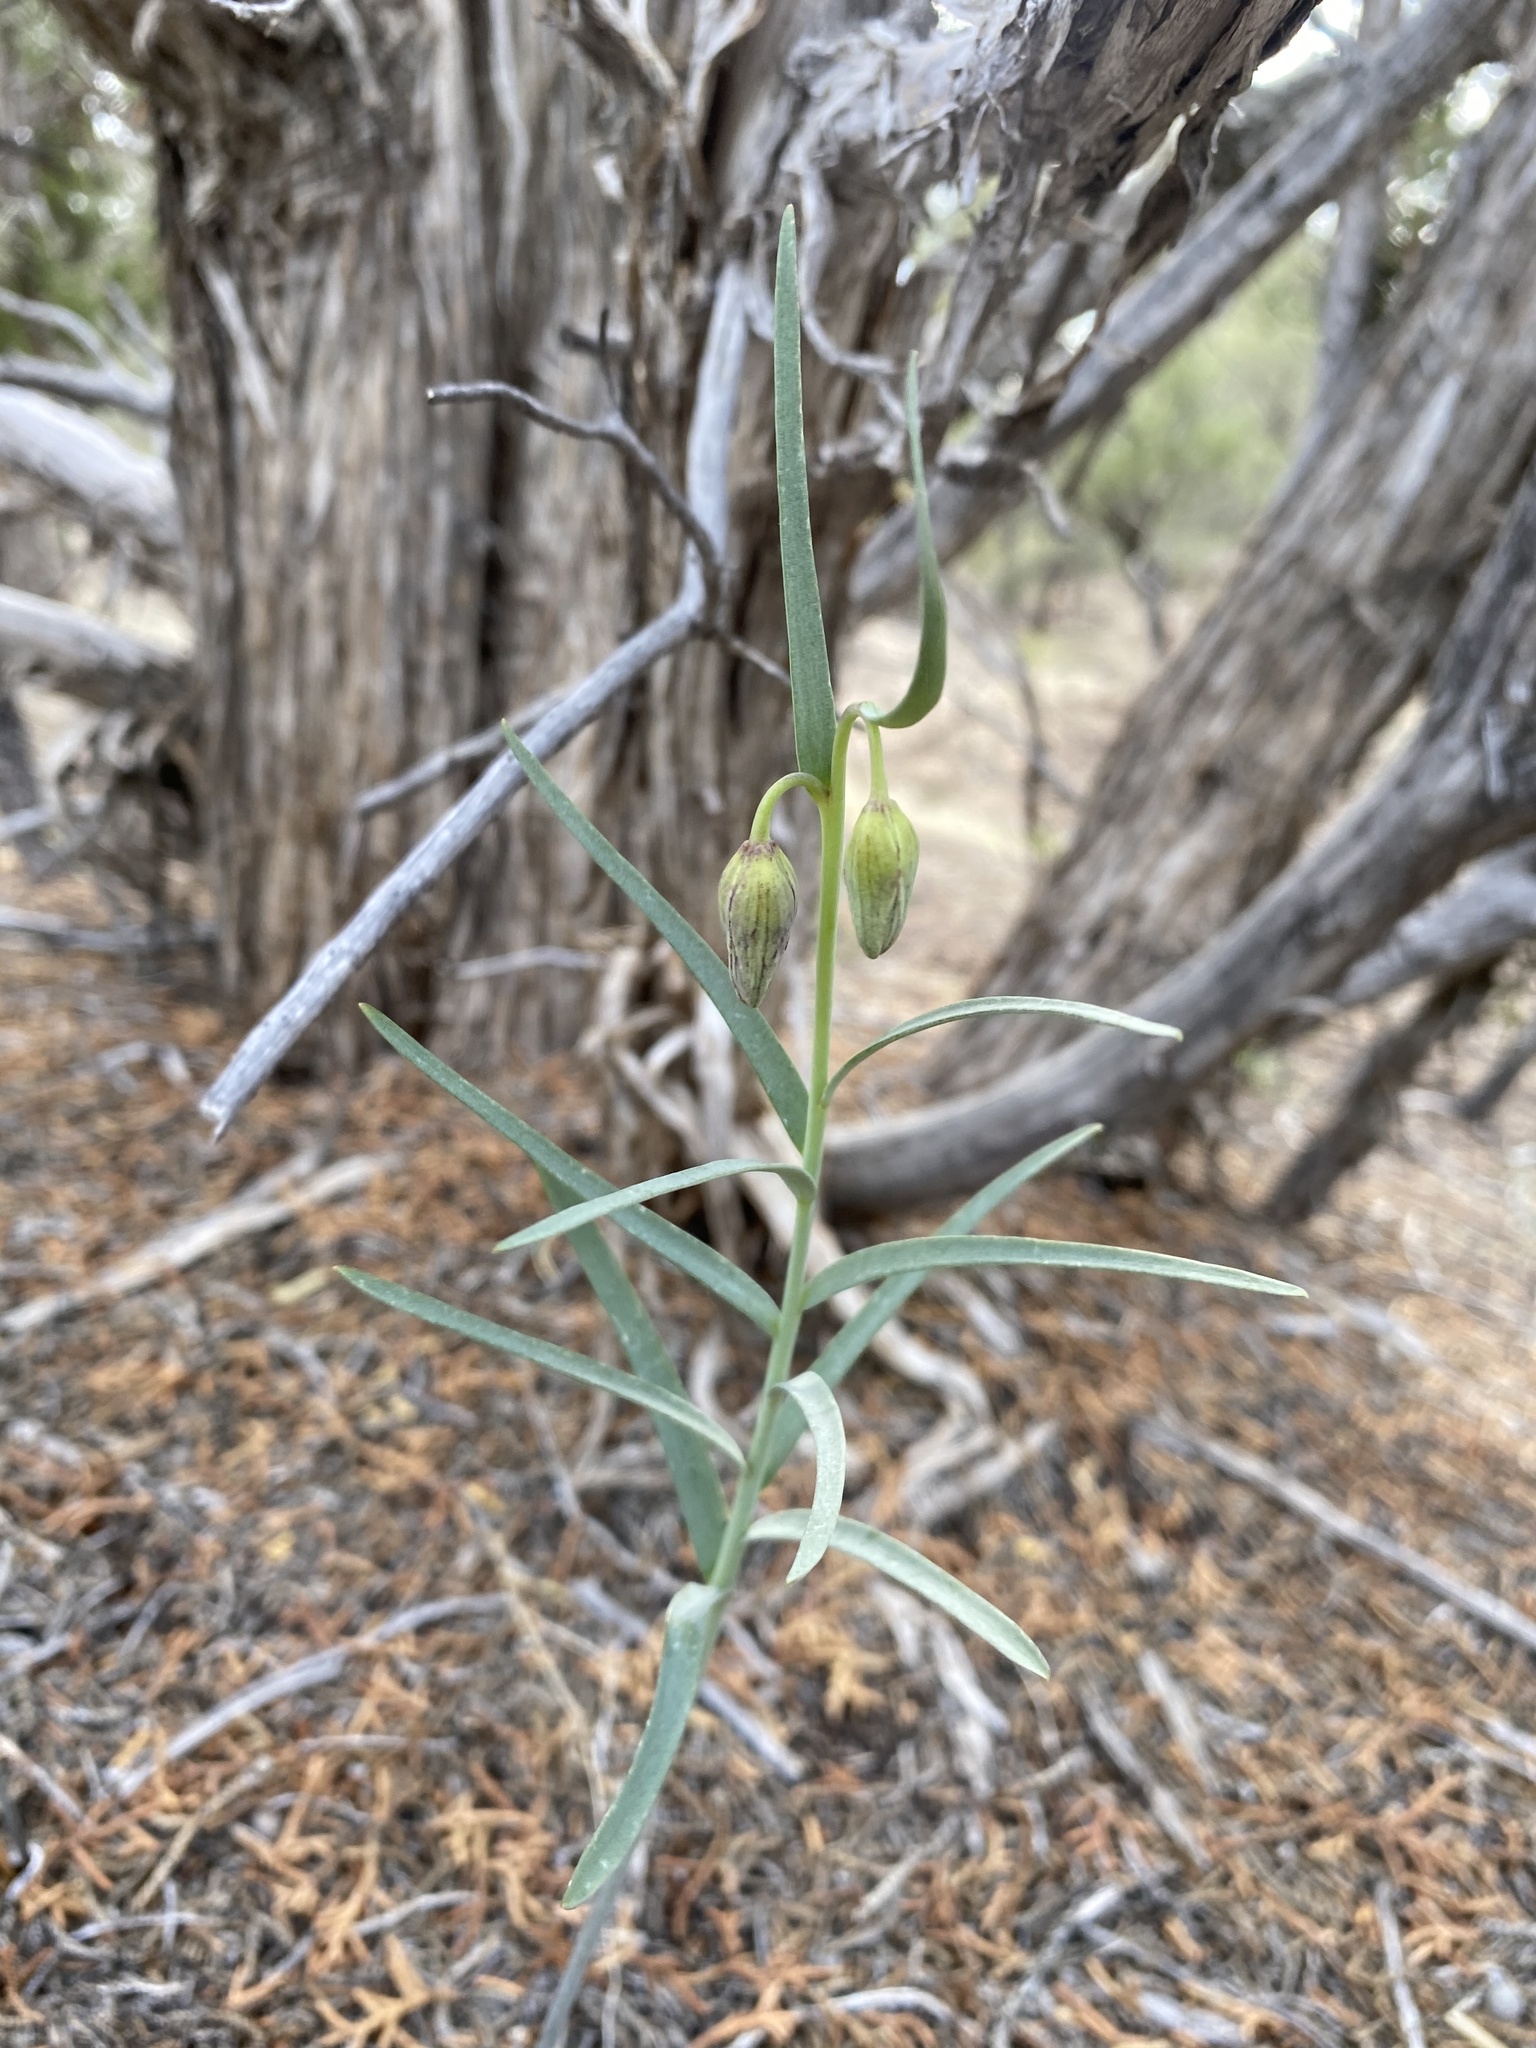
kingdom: Plantae
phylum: Tracheophyta
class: Liliopsida
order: Liliales
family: Liliaceae
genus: Fritillaria
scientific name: Fritillaria atropurpurea
